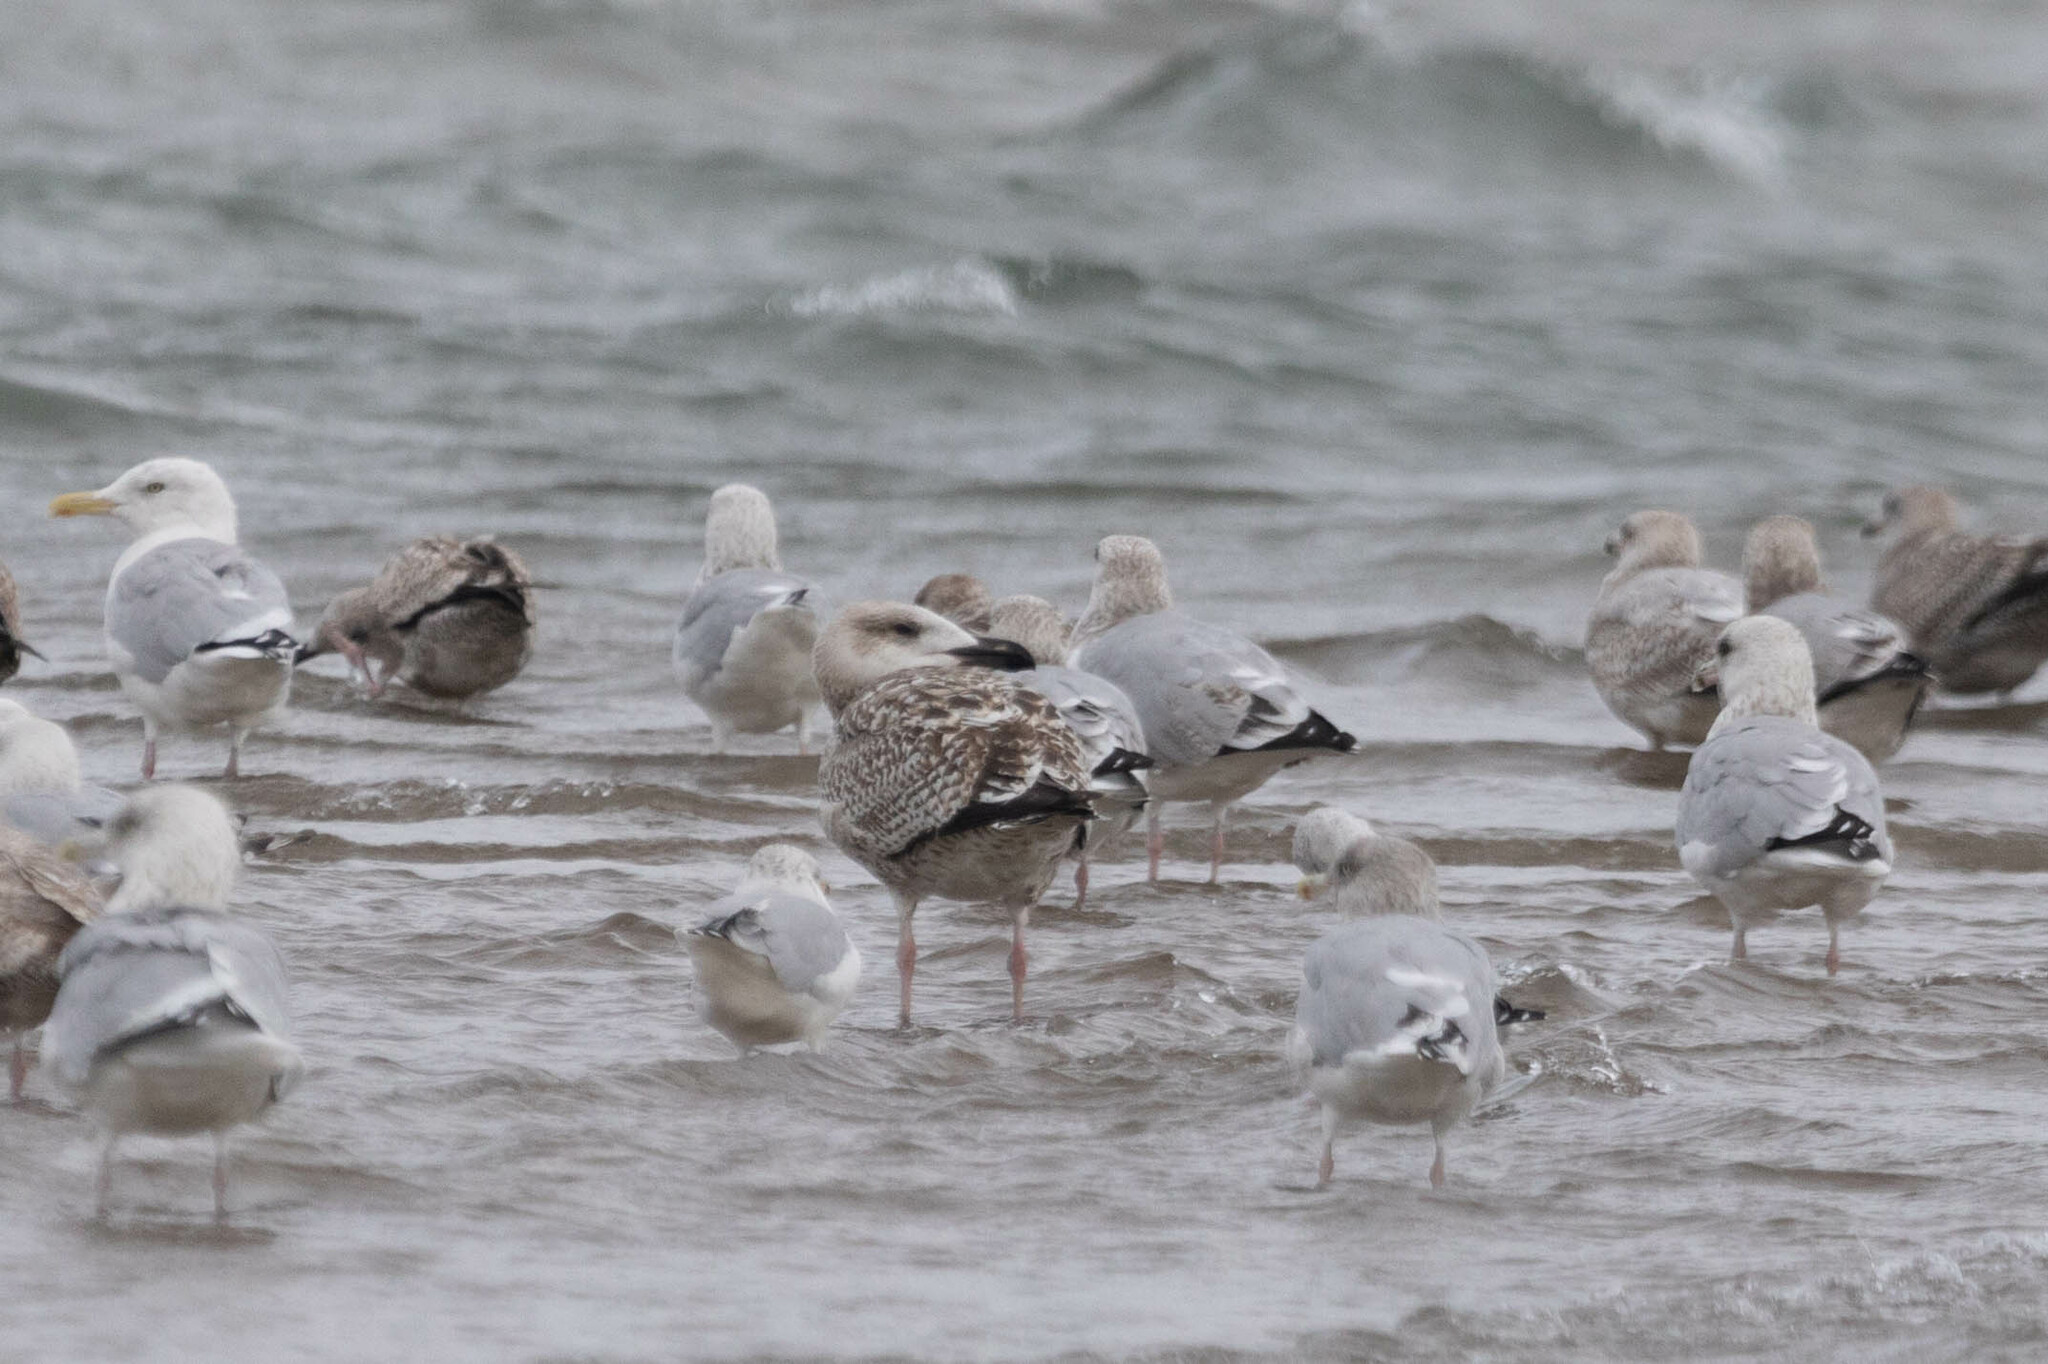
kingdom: Animalia
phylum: Chordata
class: Aves
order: Charadriiformes
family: Laridae
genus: Larus
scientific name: Larus marinus
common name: Great black-backed gull
